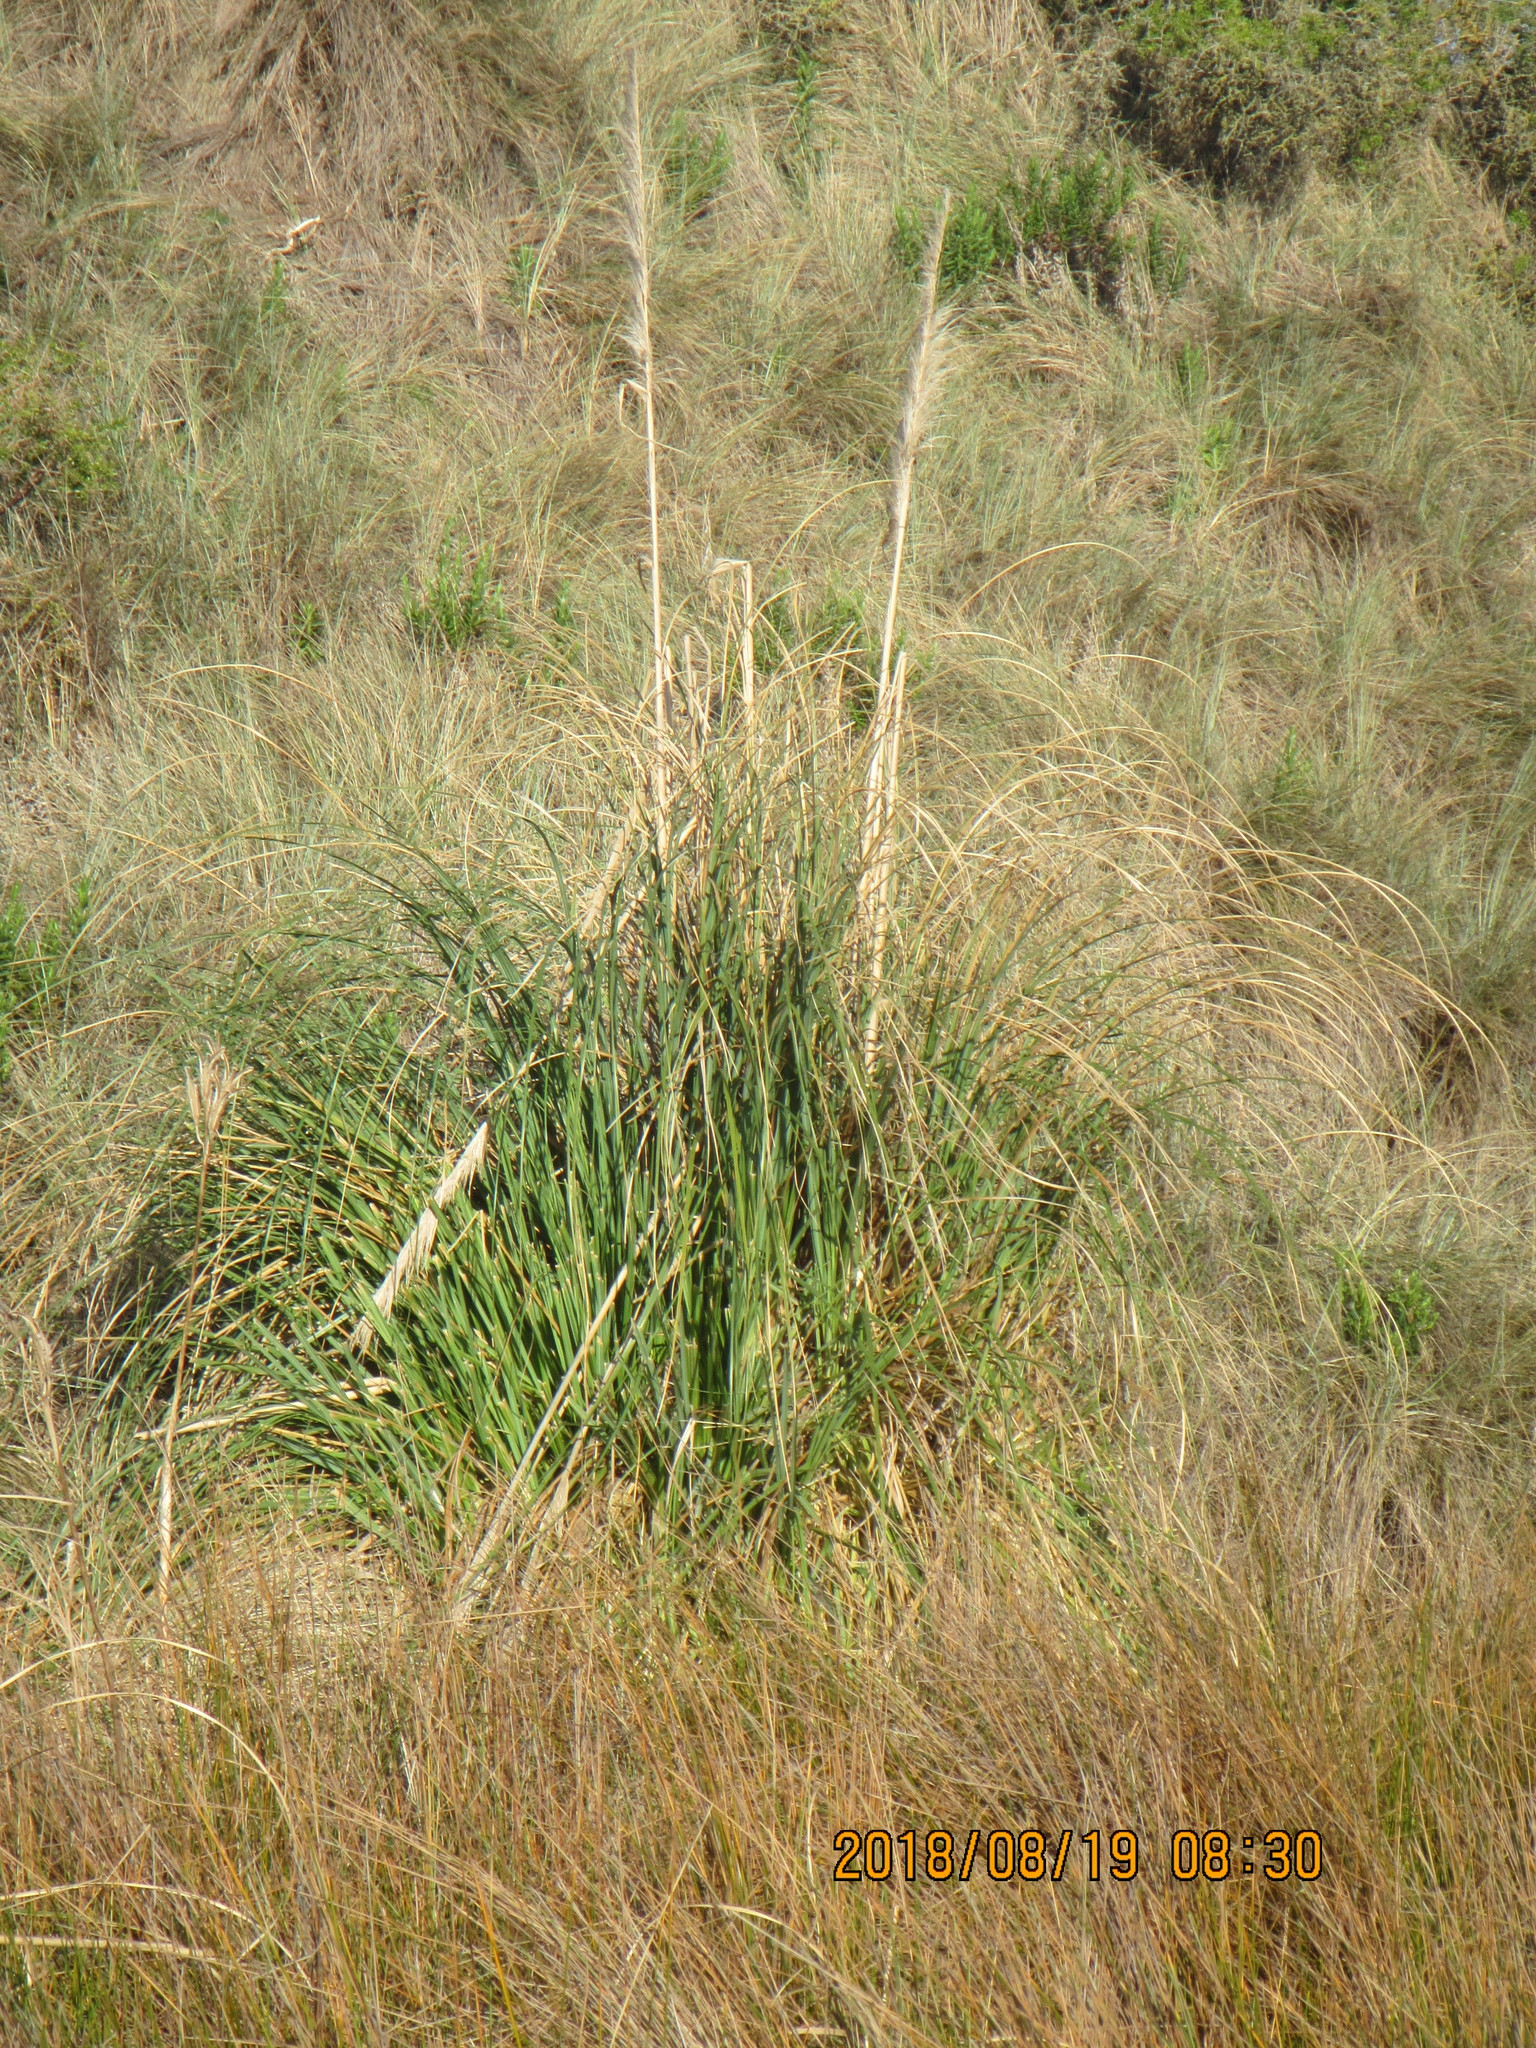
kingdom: Plantae
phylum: Tracheophyta
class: Liliopsida
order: Poales
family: Poaceae
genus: Cortaderia
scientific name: Cortaderia selloana
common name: Uruguayan pampas grass
